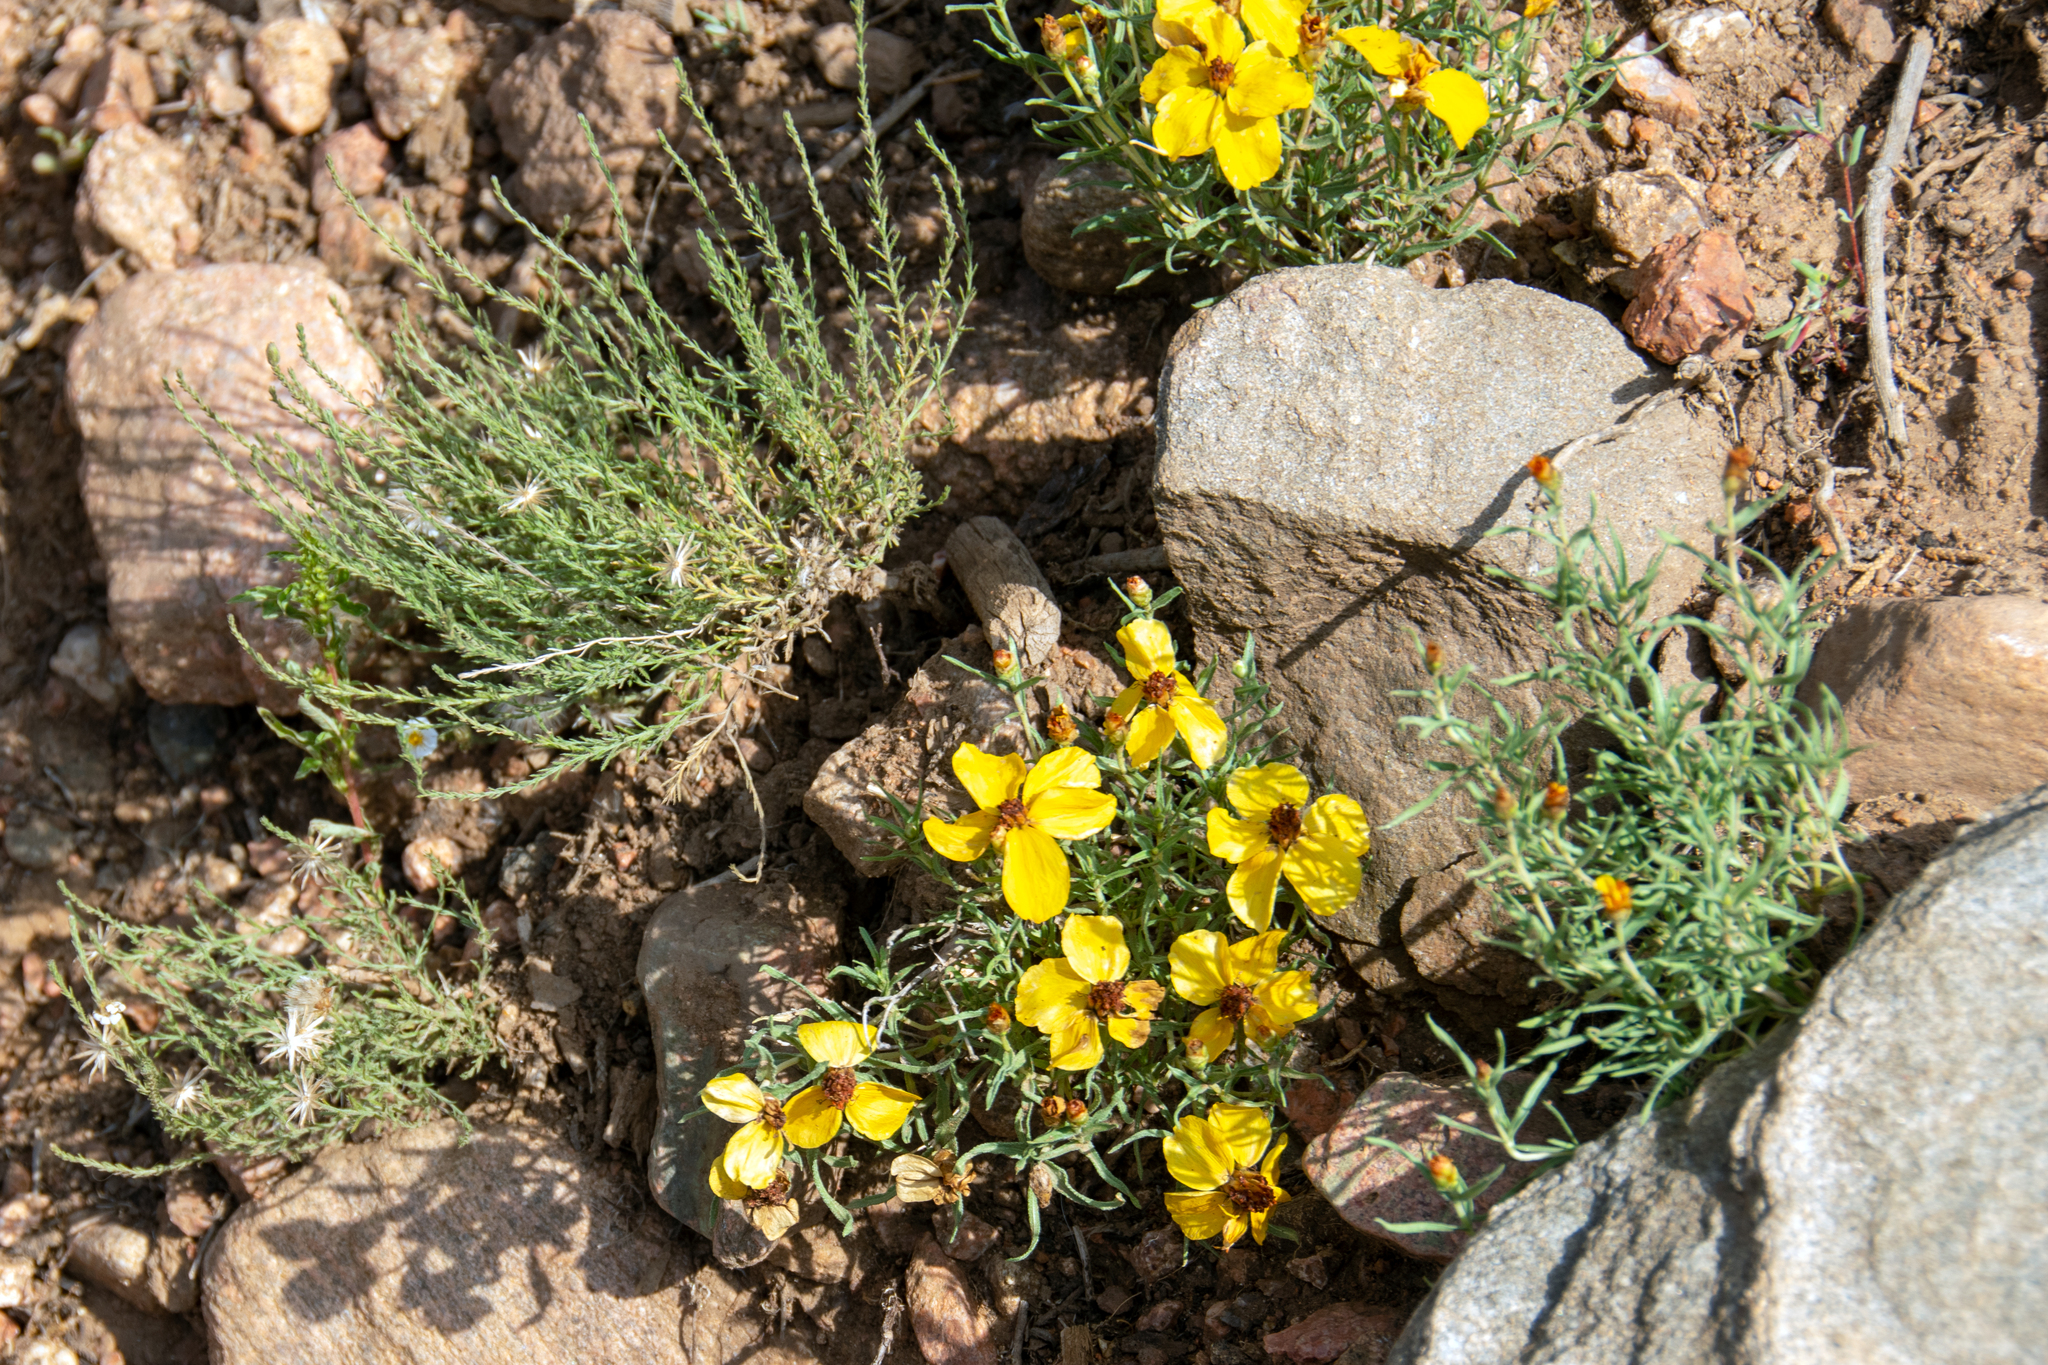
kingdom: Plantae
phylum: Tracheophyta
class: Magnoliopsida
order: Asterales
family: Asteraceae
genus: Zinnia
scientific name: Zinnia grandiflora
